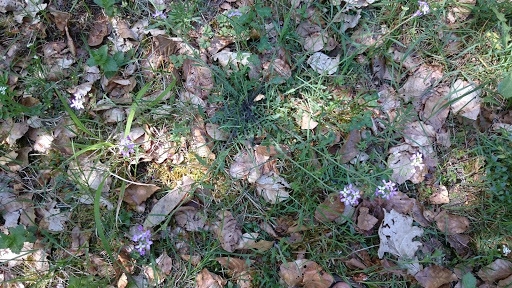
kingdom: Plantae
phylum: Tracheophyta
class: Magnoliopsida
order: Brassicales
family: Brassicaceae
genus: Arabidopsis
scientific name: Arabidopsis arenosa
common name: Sand rock-cress
